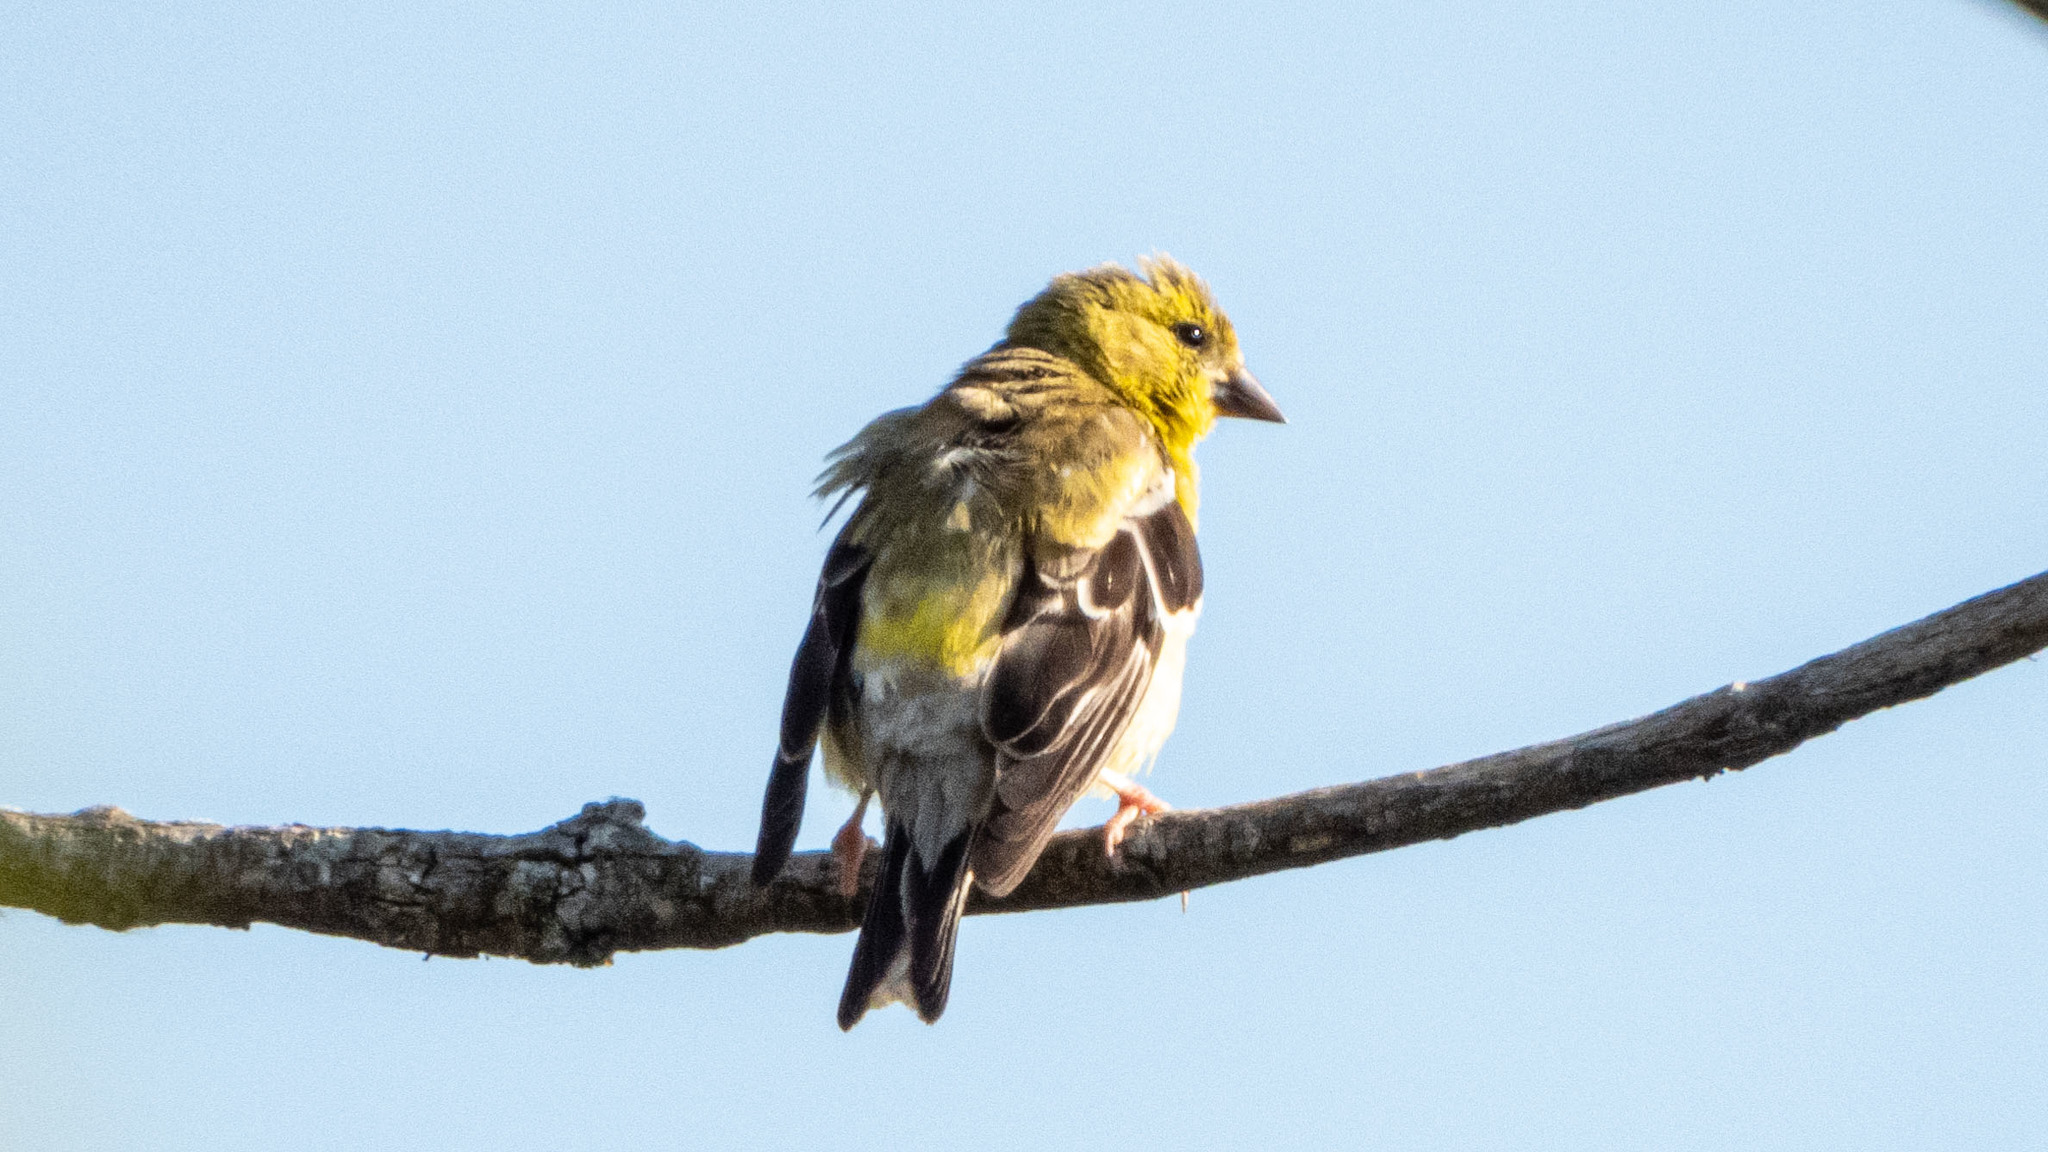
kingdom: Animalia
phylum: Chordata
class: Aves
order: Passeriformes
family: Fringillidae
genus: Spinus
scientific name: Spinus tristis
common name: American goldfinch
